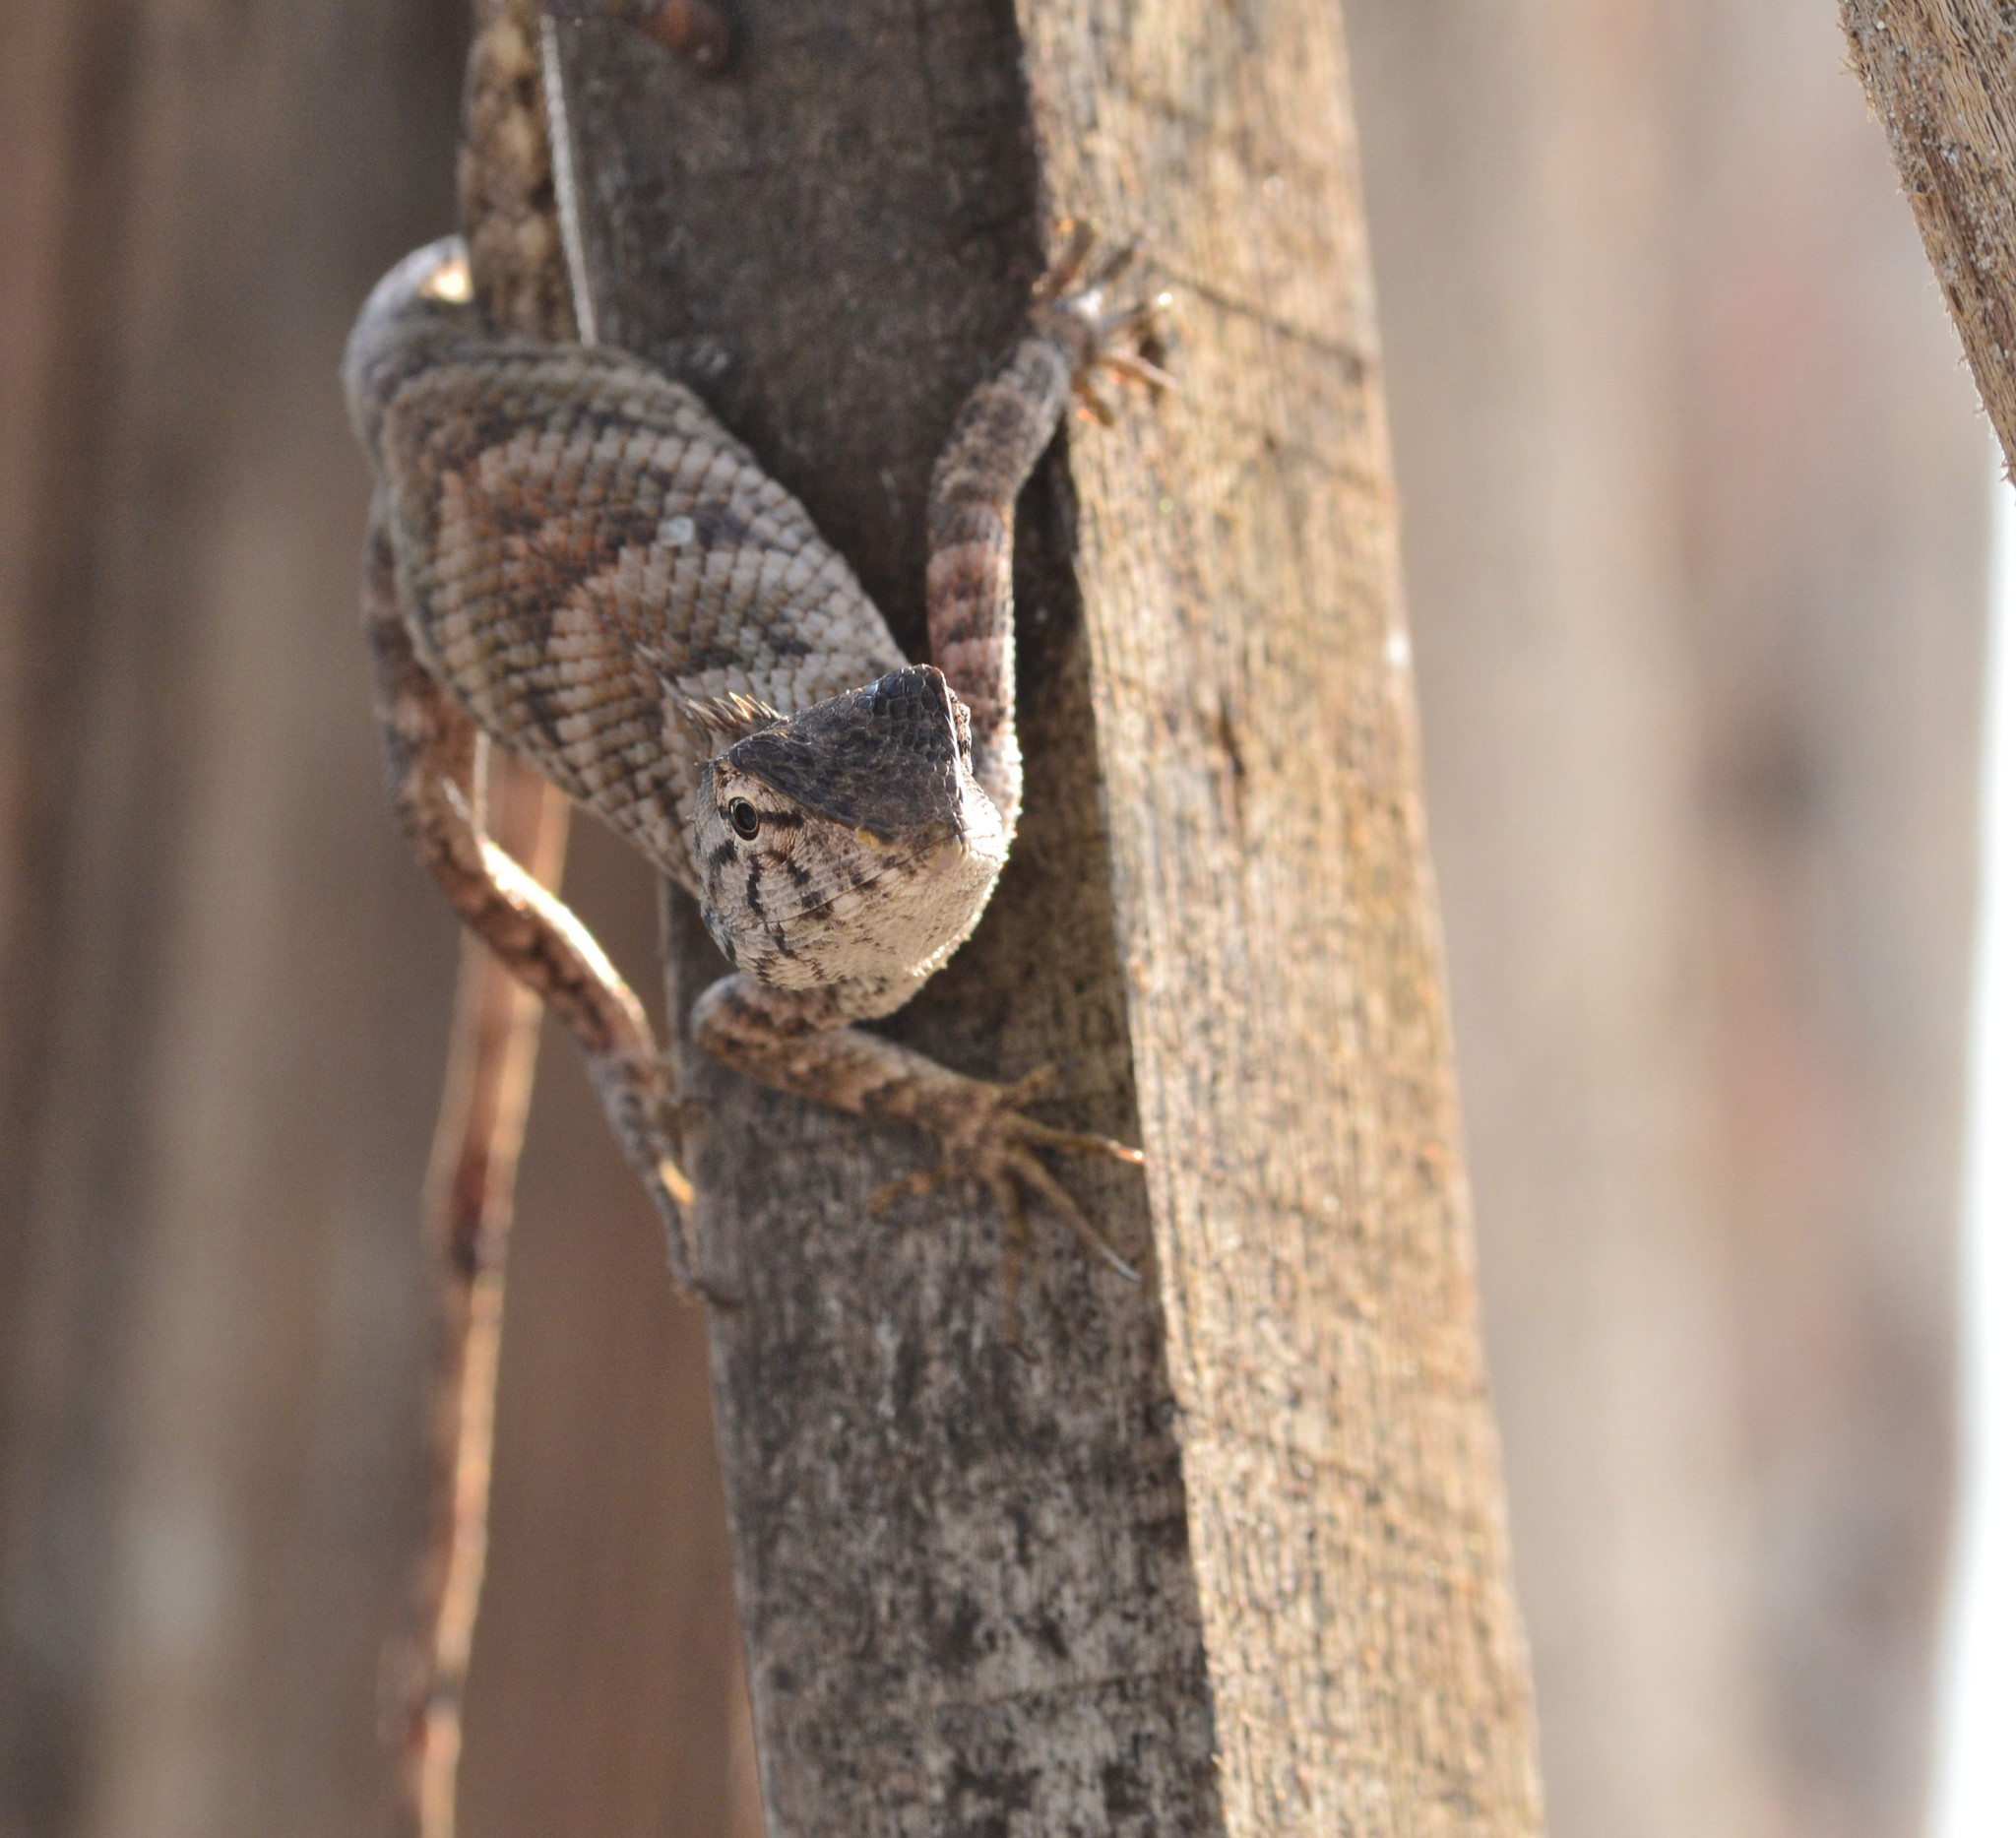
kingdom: Animalia
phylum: Chordata
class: Squamata
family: Agamidae
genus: Calotes
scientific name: Calotes versicolor
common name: Oriental garden lizard
